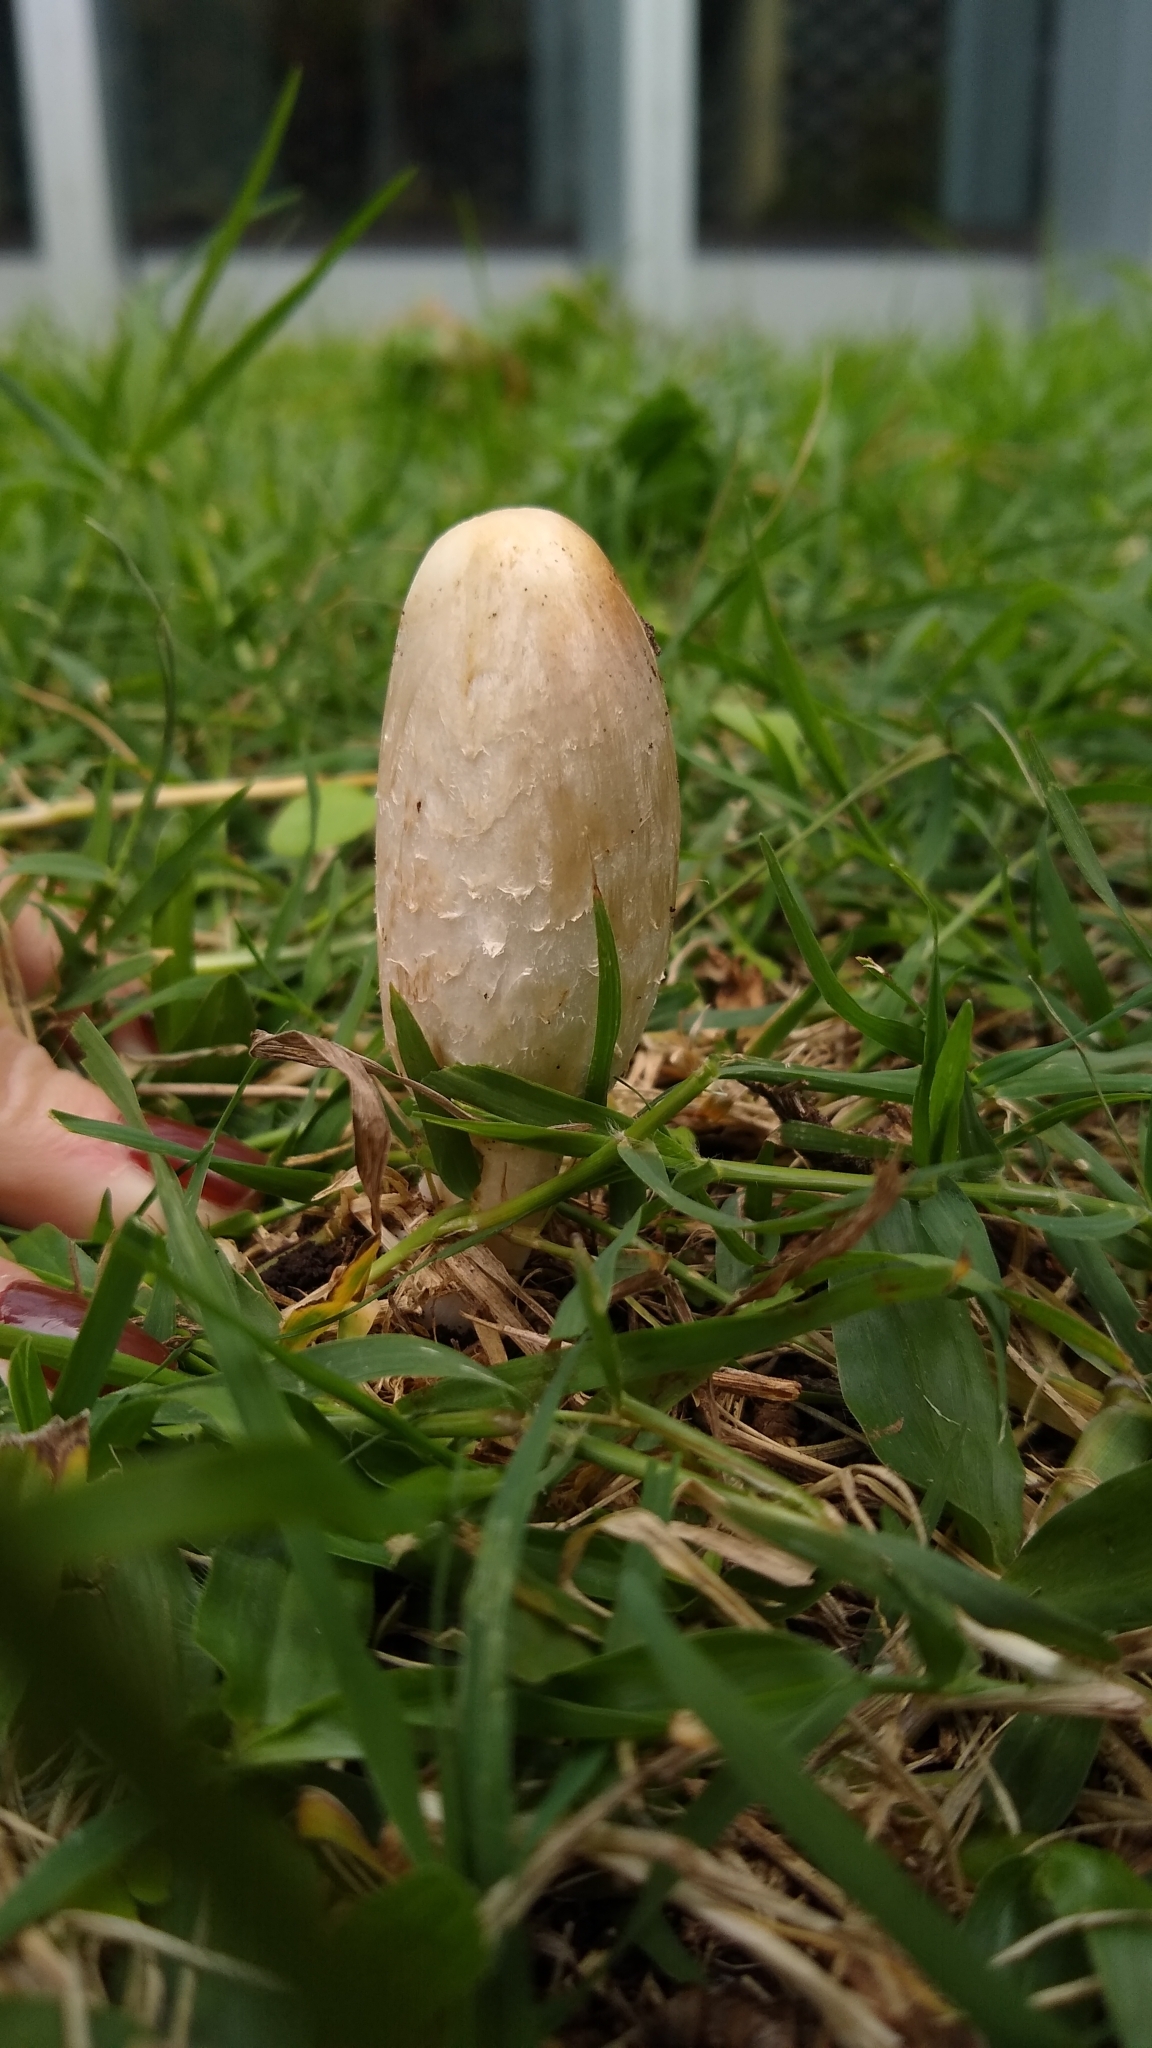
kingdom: Fungi
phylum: Basidiomycota
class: Agaricomycetes
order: Agaricales
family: Agaricaceae
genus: Coprinus
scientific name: Coprinus comatus
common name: Lawyer's wig
